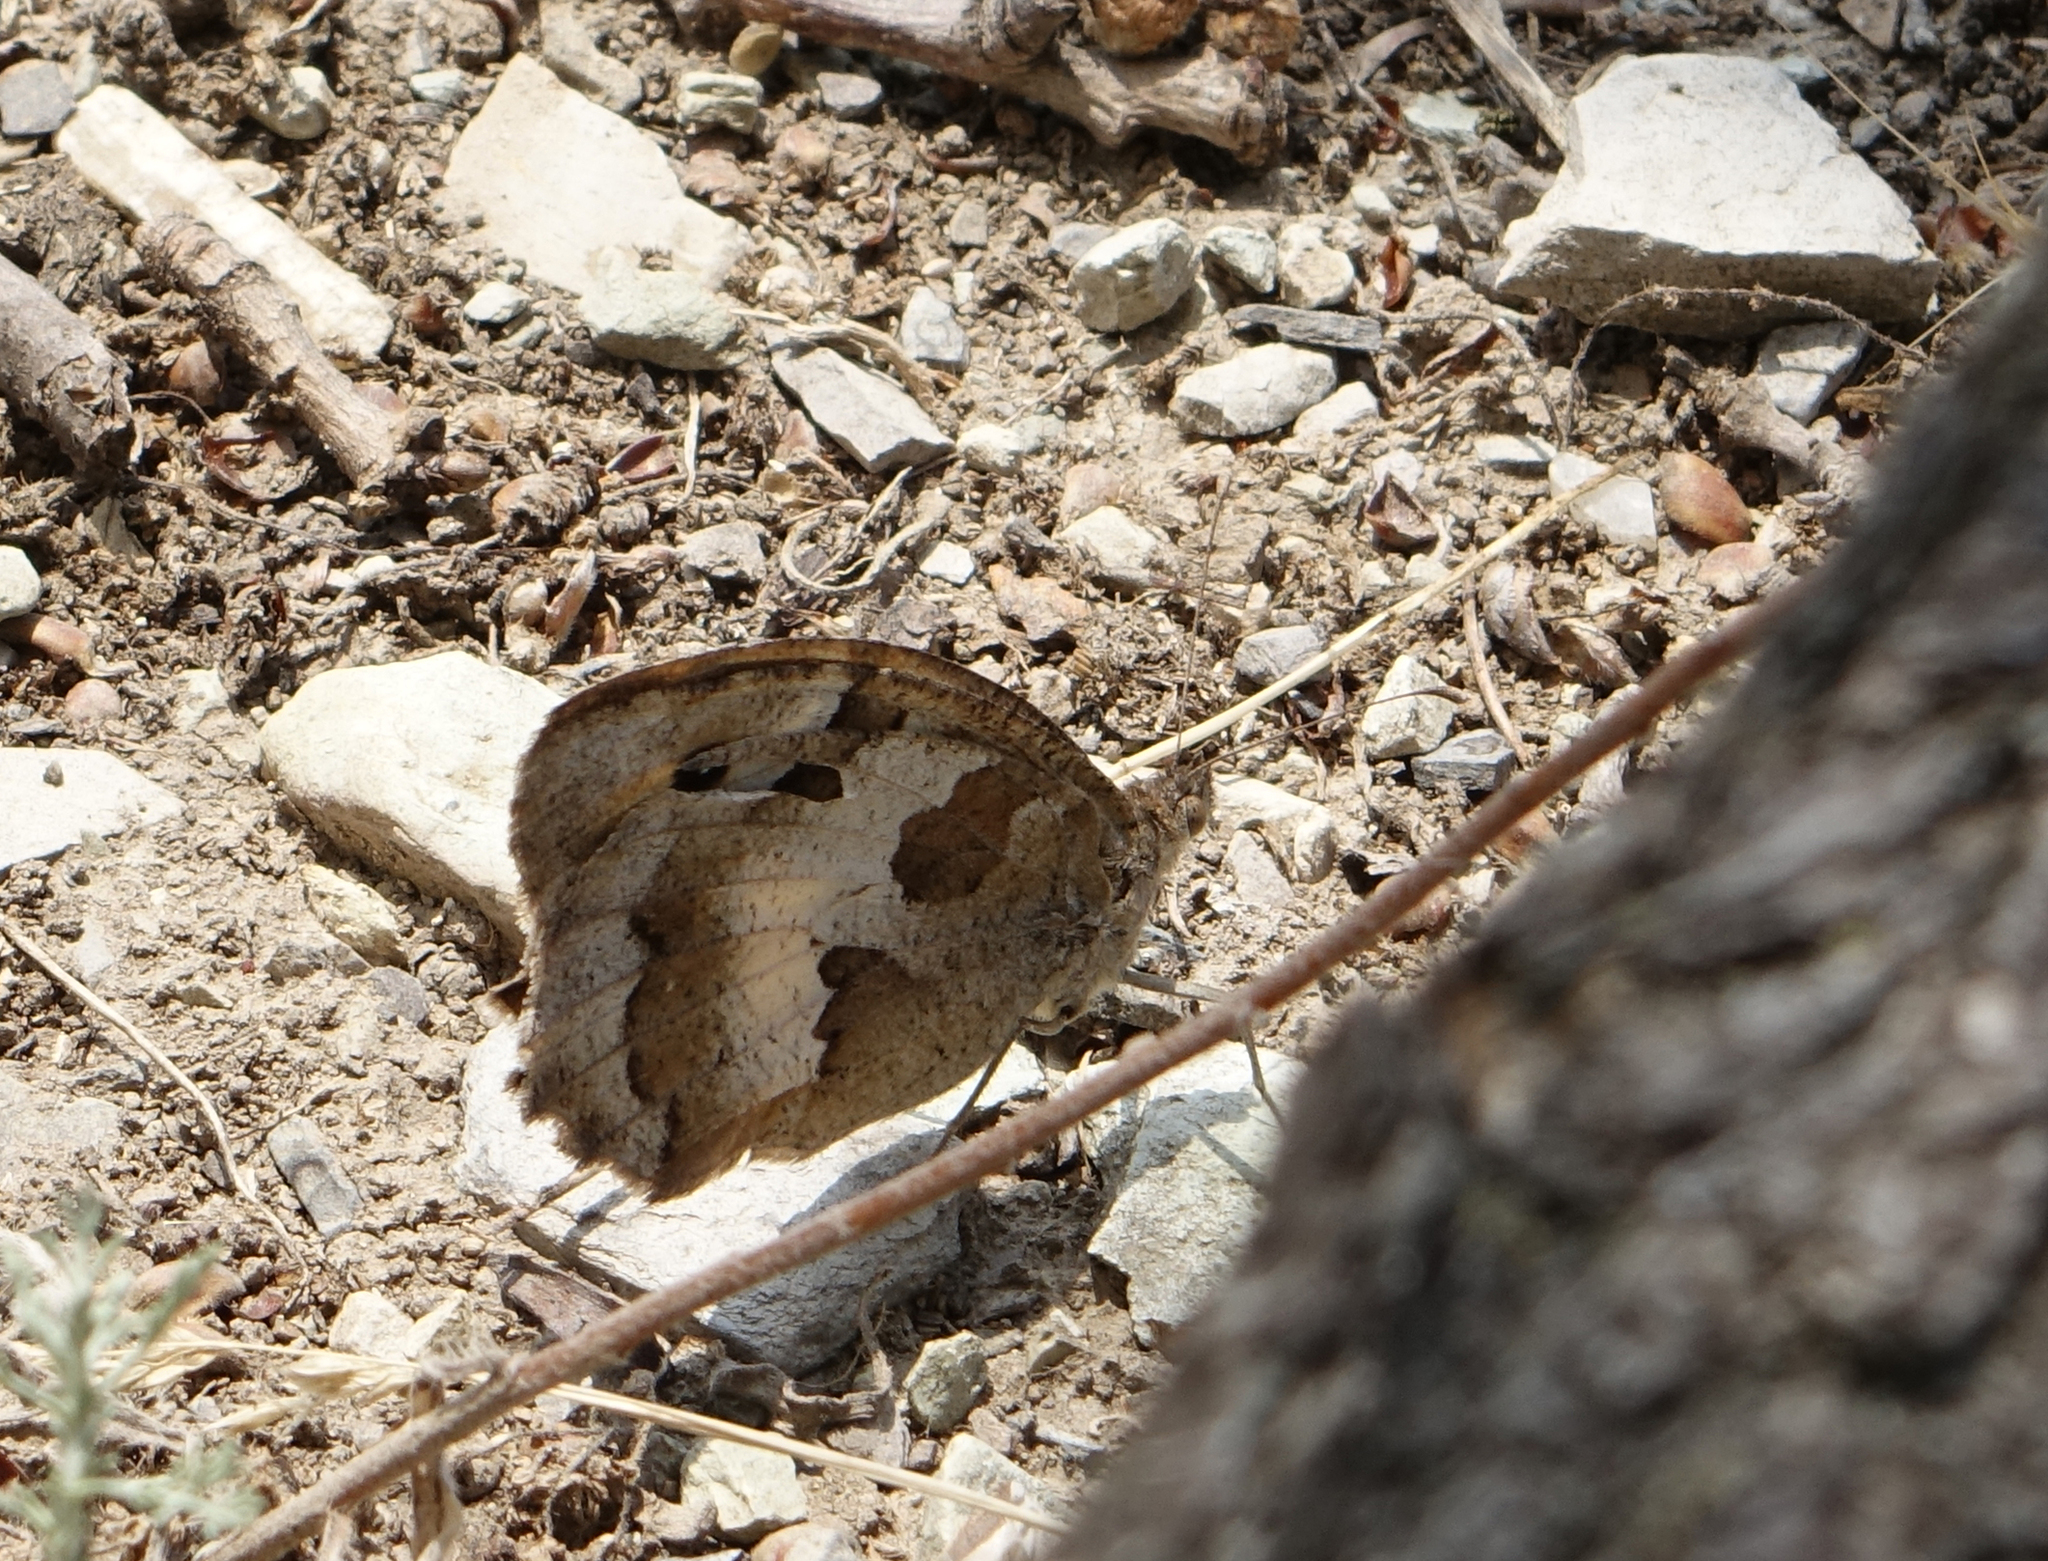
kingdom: Animalia
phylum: Arthropoda
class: Insecta
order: Lepidoptera
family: Nymphalidae
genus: Satyrus
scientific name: Satyrus briseis
